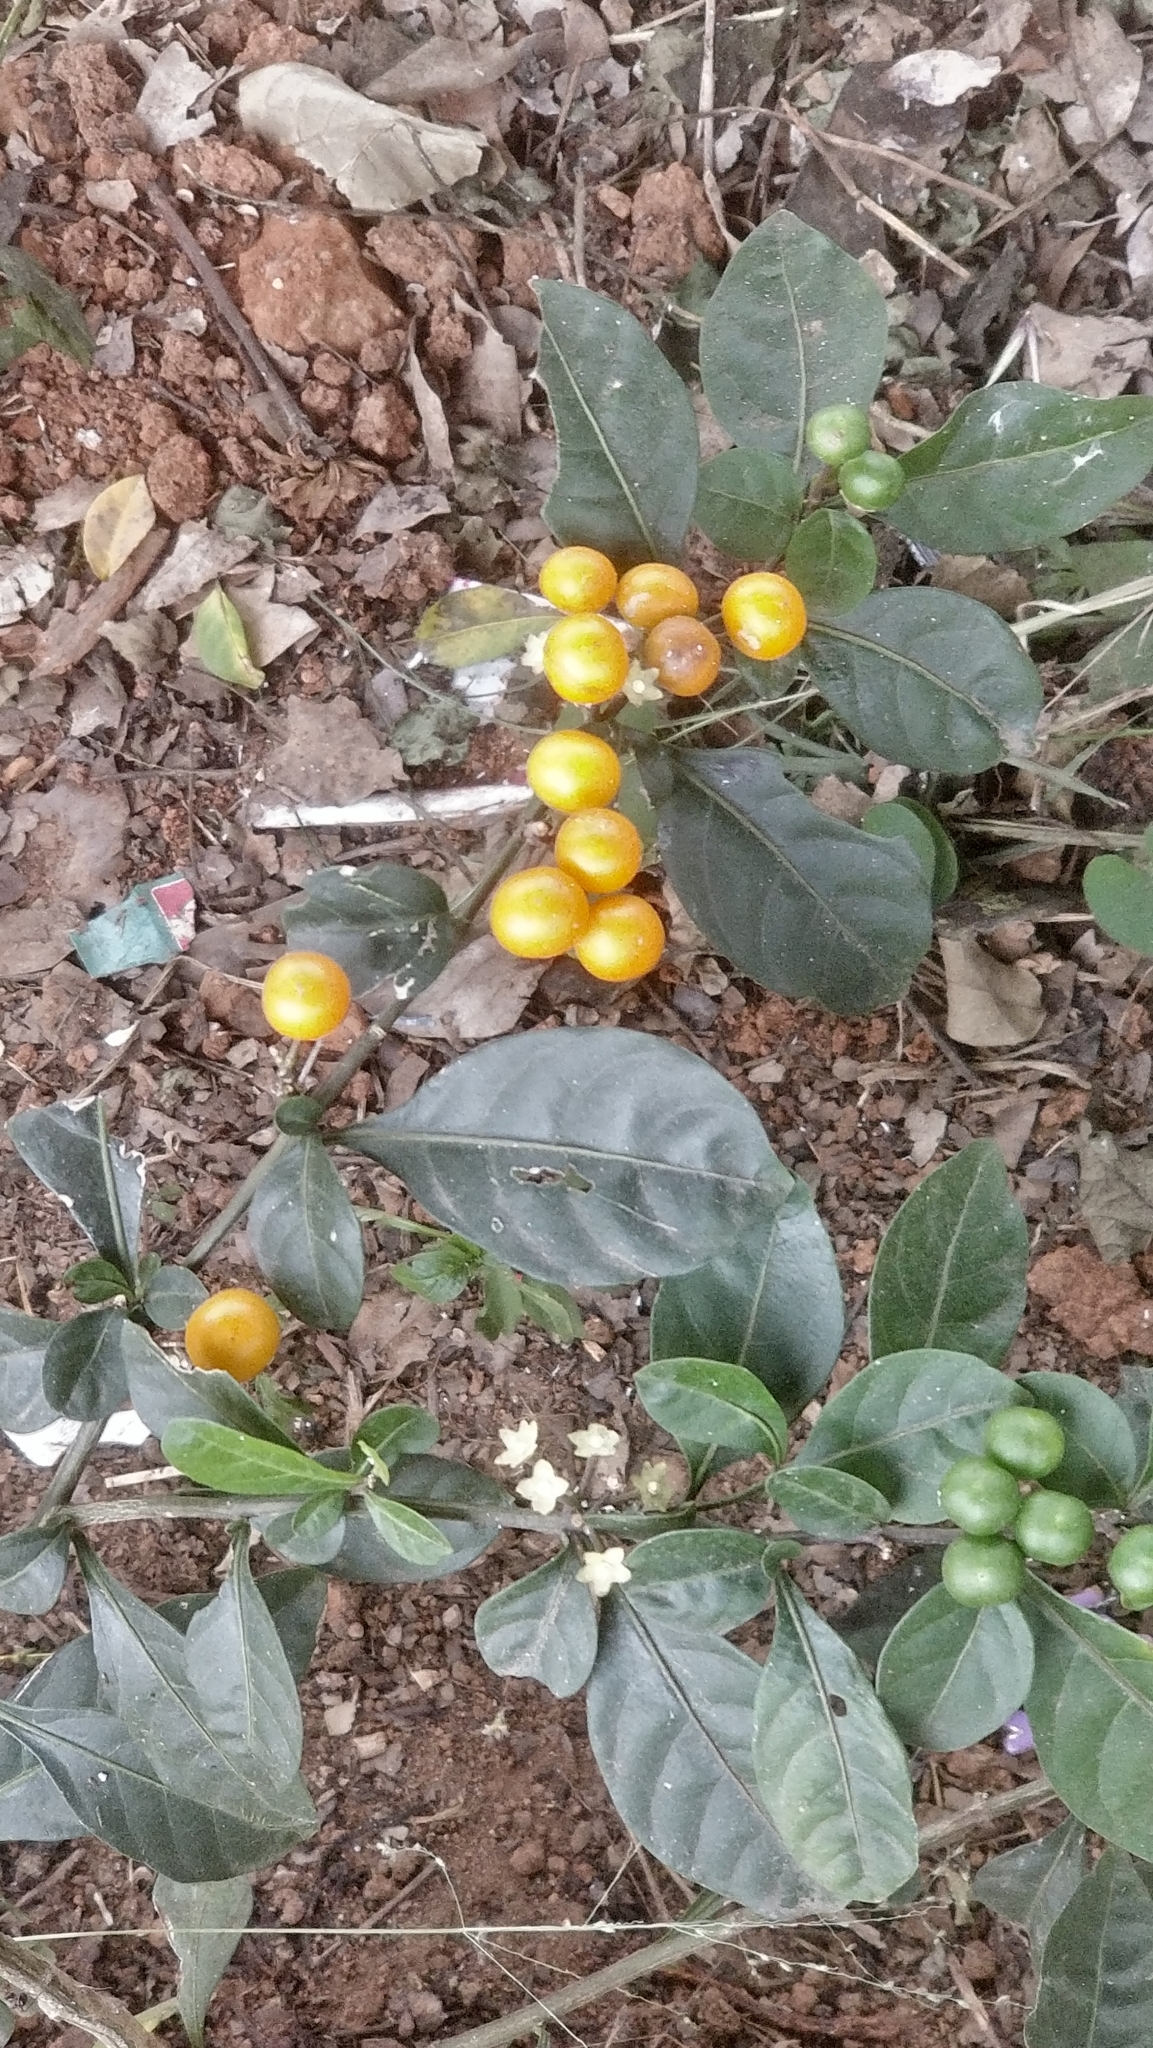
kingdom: Plantae
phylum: Tracheophyta
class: Magnoliopsida
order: Solanales
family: Solanaceae
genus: Solanum
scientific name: Solanum diphyllum
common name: Twoleaf nightshade
